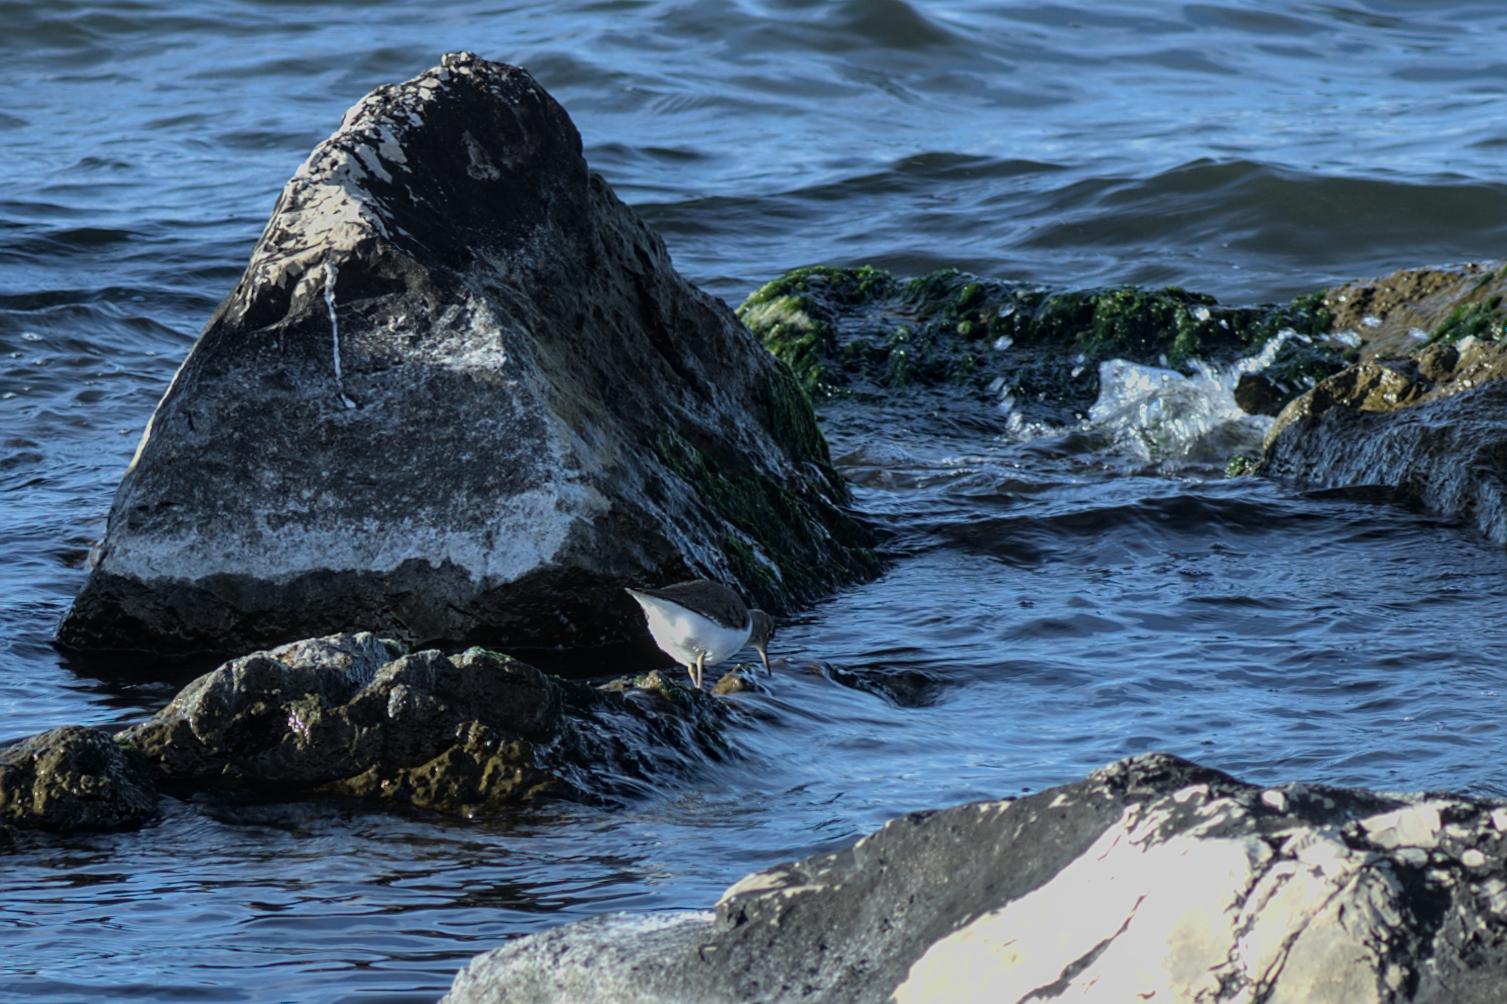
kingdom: Animalia
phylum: Chordata
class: Aves
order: Charadriiformes
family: Scolopacidae
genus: Actitis
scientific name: Actitis hypoleucos
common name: Common sandpiper
